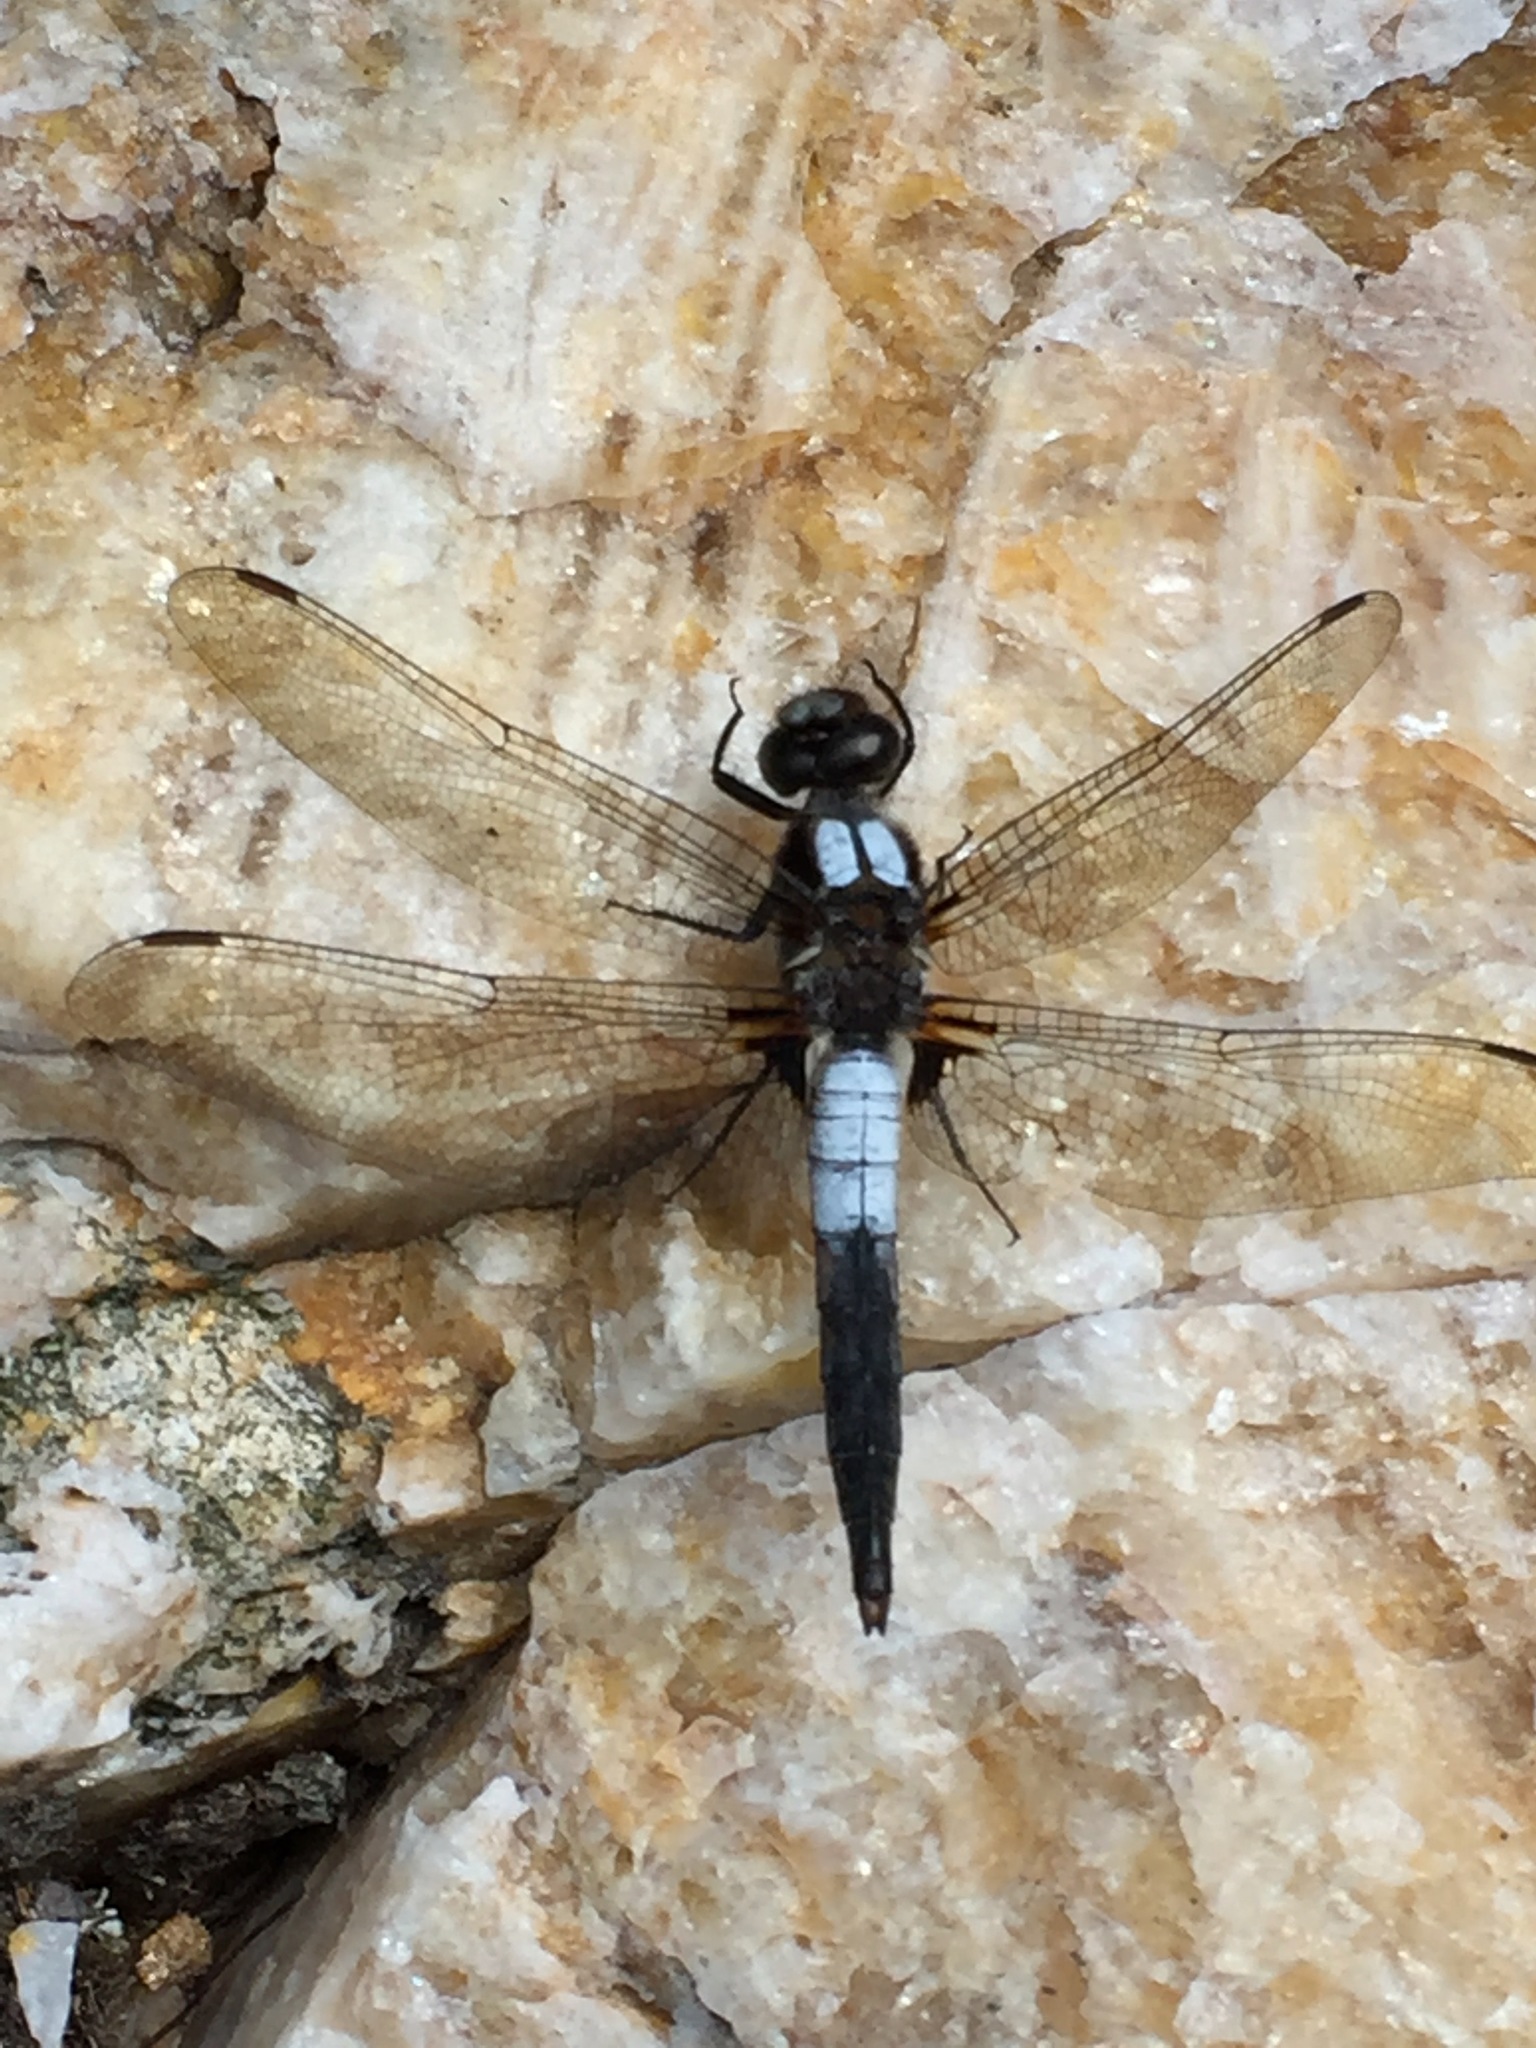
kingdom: Animalia
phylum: Arthropoda
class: Insecta
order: Odonata
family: Libellulidae
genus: Ladona
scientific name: Ladona julia
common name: Chalk-fronted corporal
